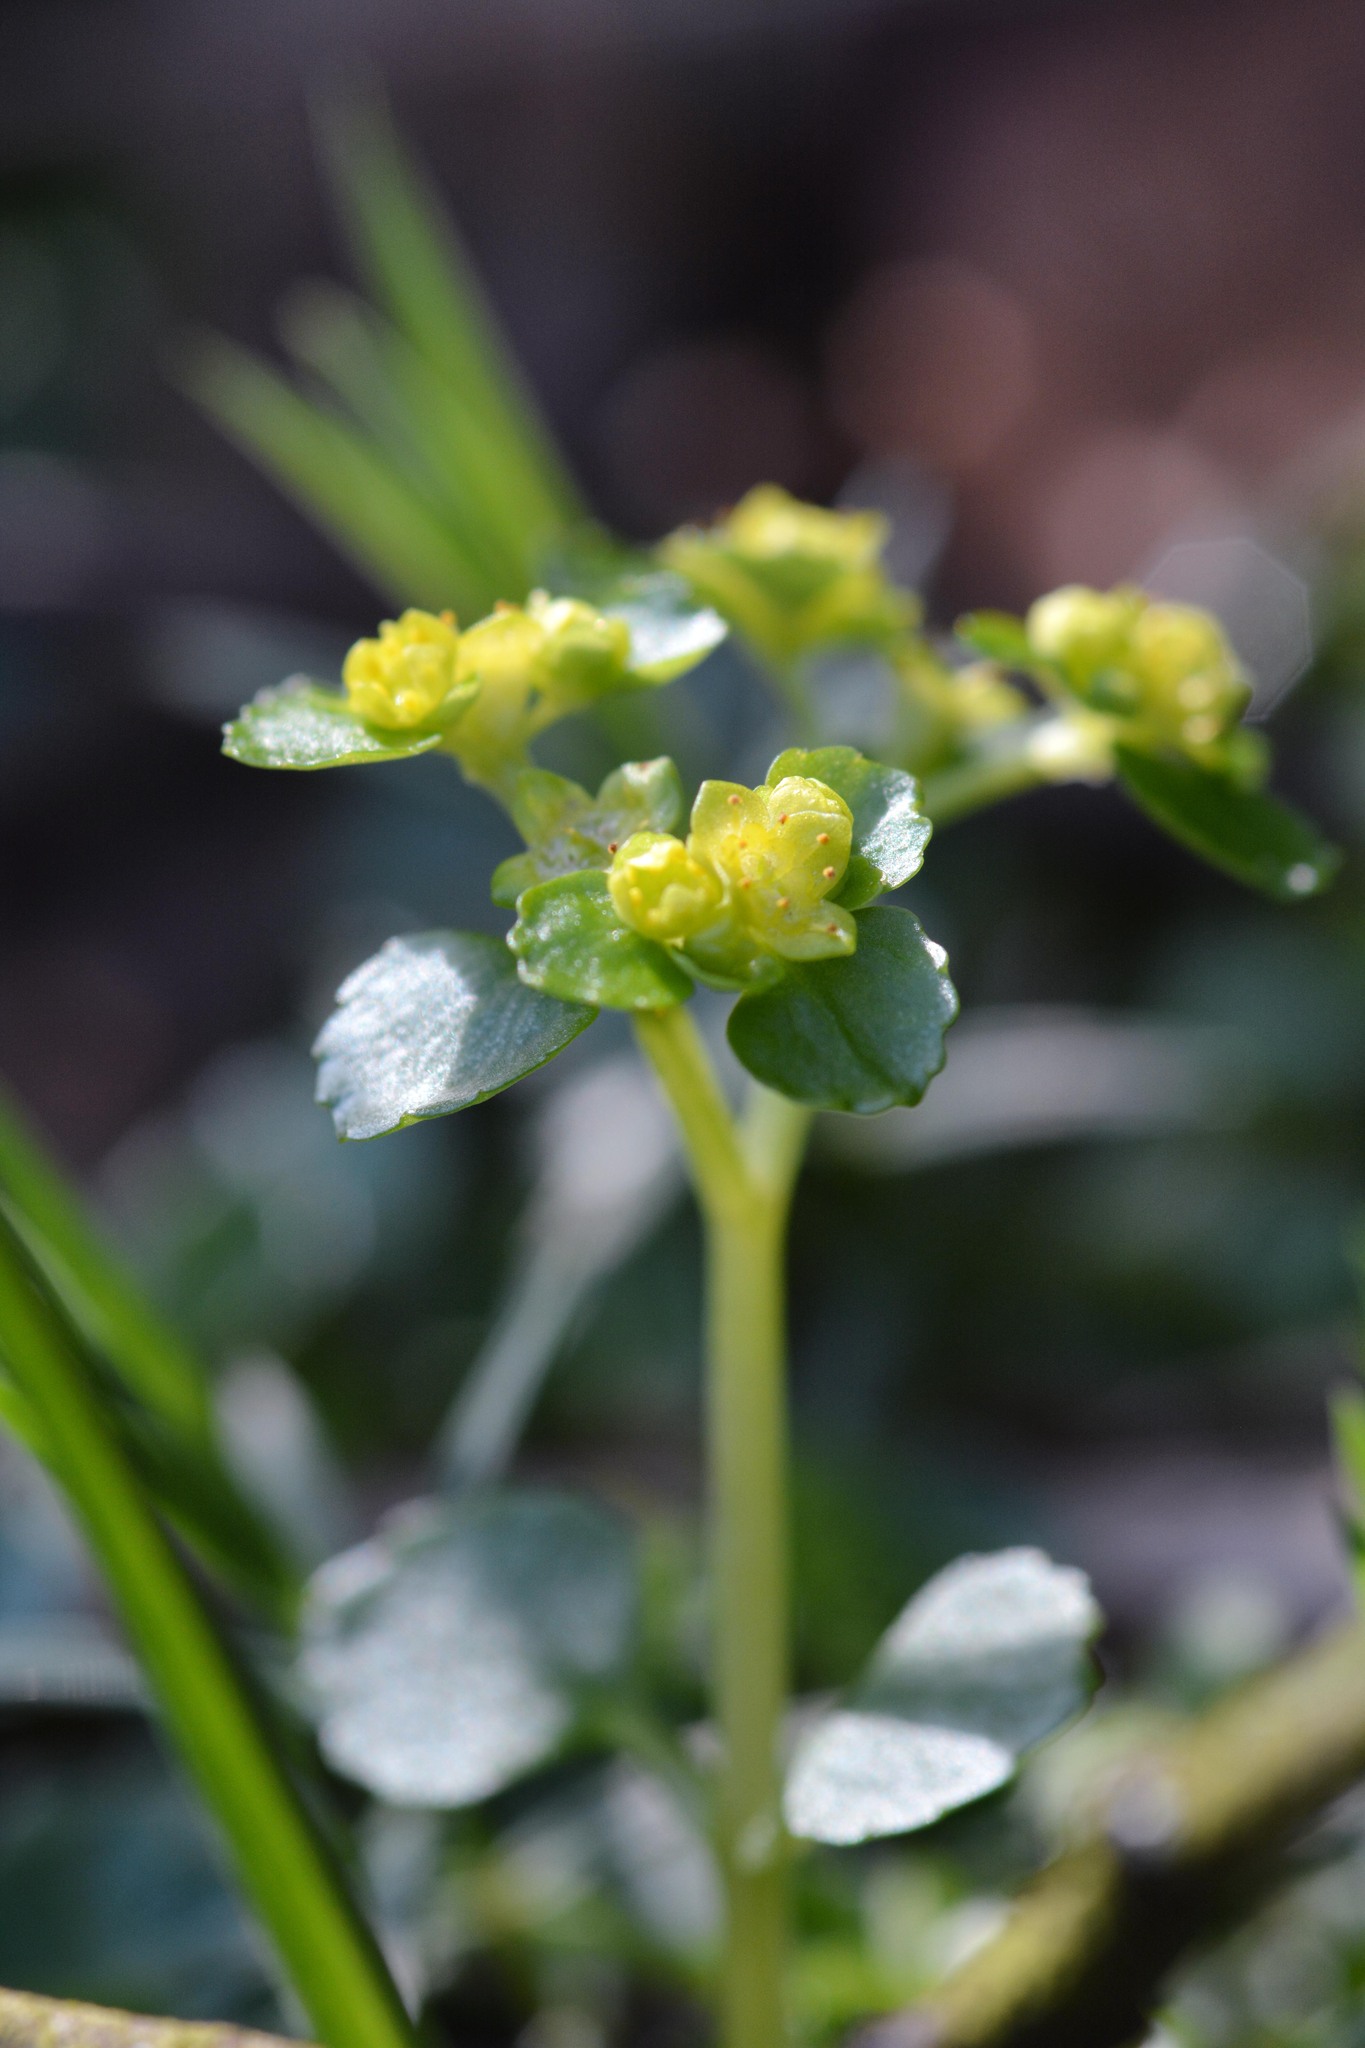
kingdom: Plantae
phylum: Tracheophyta
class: Magnoliopsida
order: Saxifragales
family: Saxifragaceae
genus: Chrysosplenium
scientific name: Chrysosplenium oppositifolium
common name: Opposite-leaved golden-saxifrage
